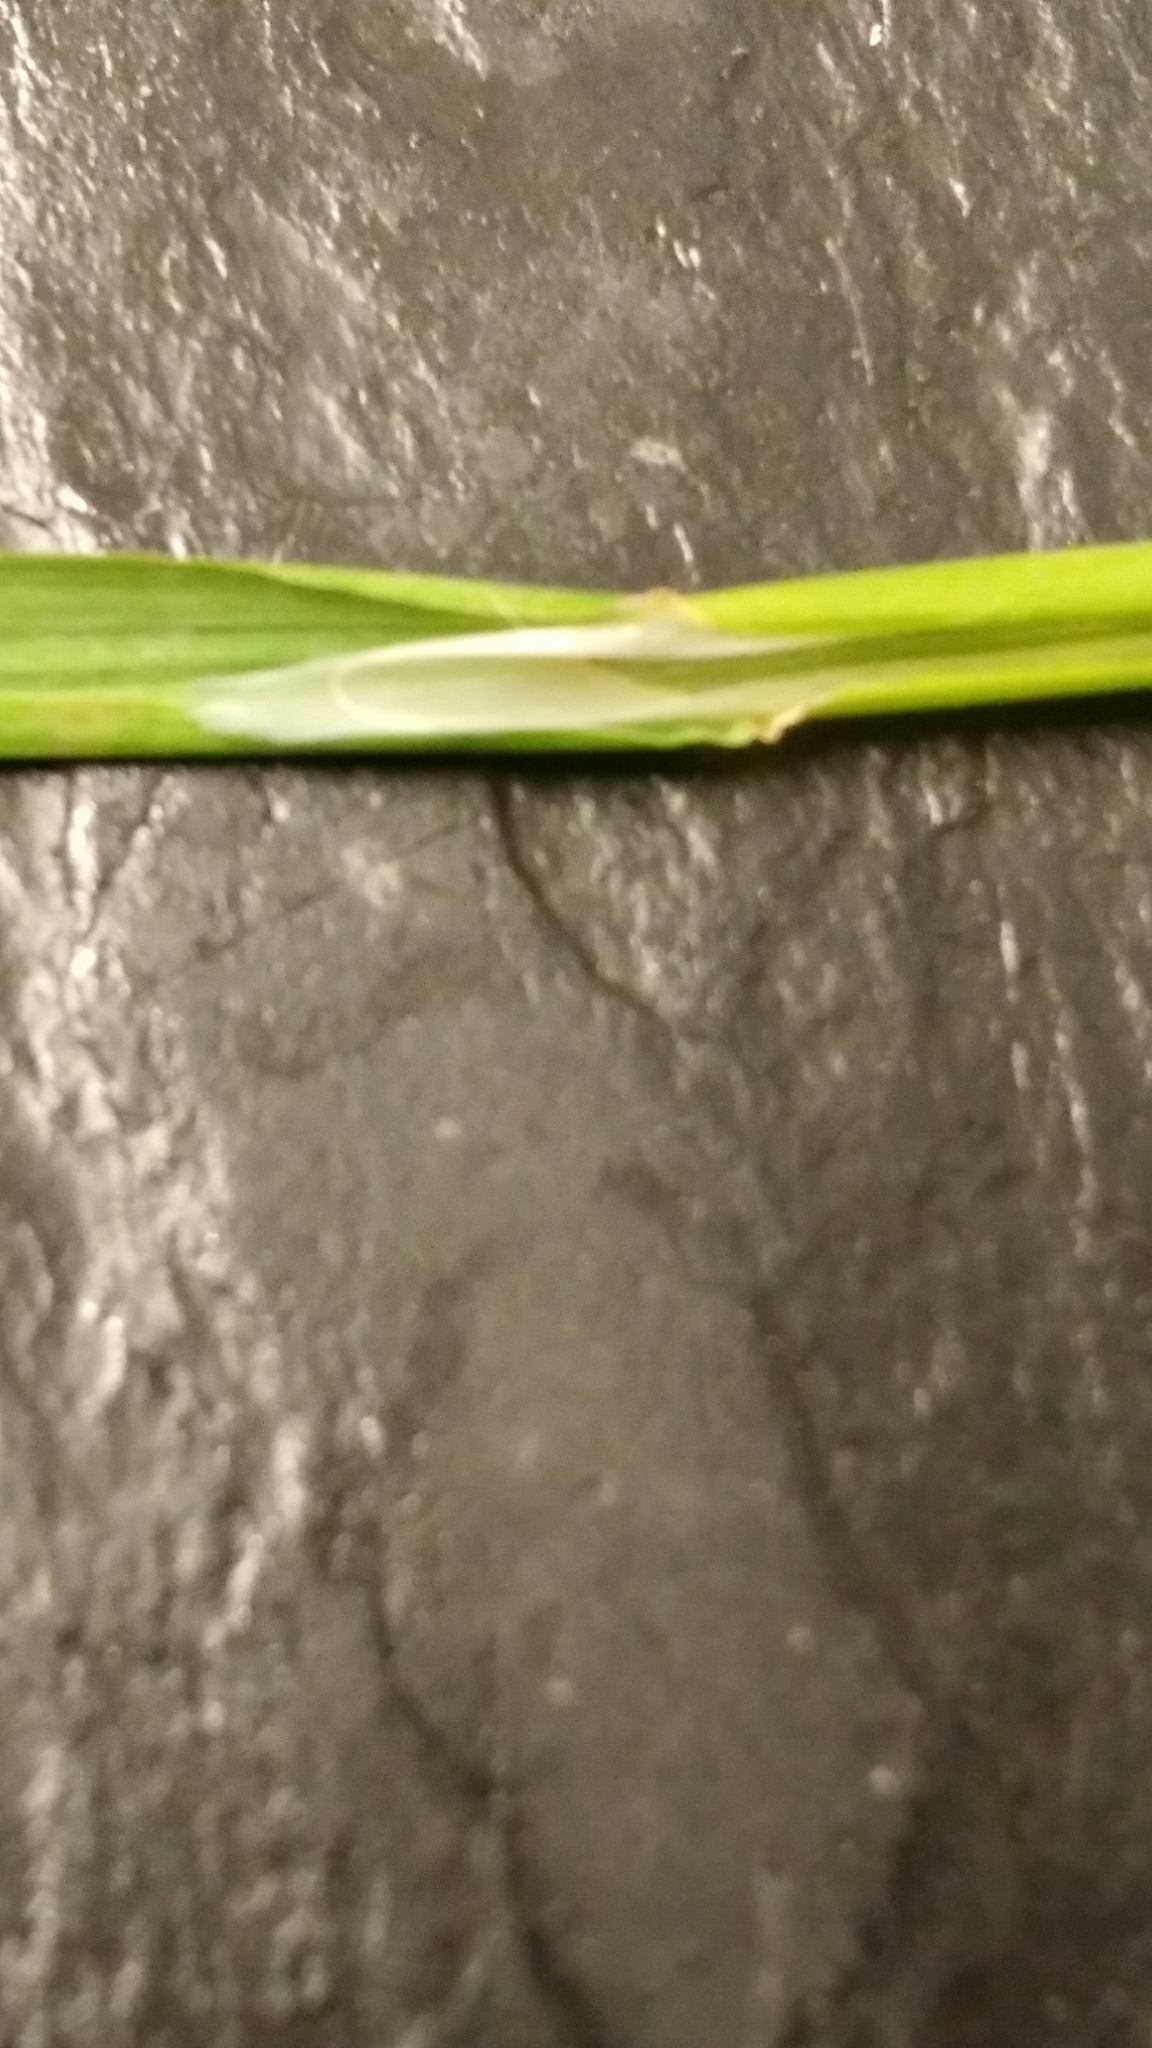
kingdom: Plantae
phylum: Tracheophyta
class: Liliopsida
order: Poales
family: Poaceae
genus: Poa
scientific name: Poa trivialis
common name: Rough bluegrass
